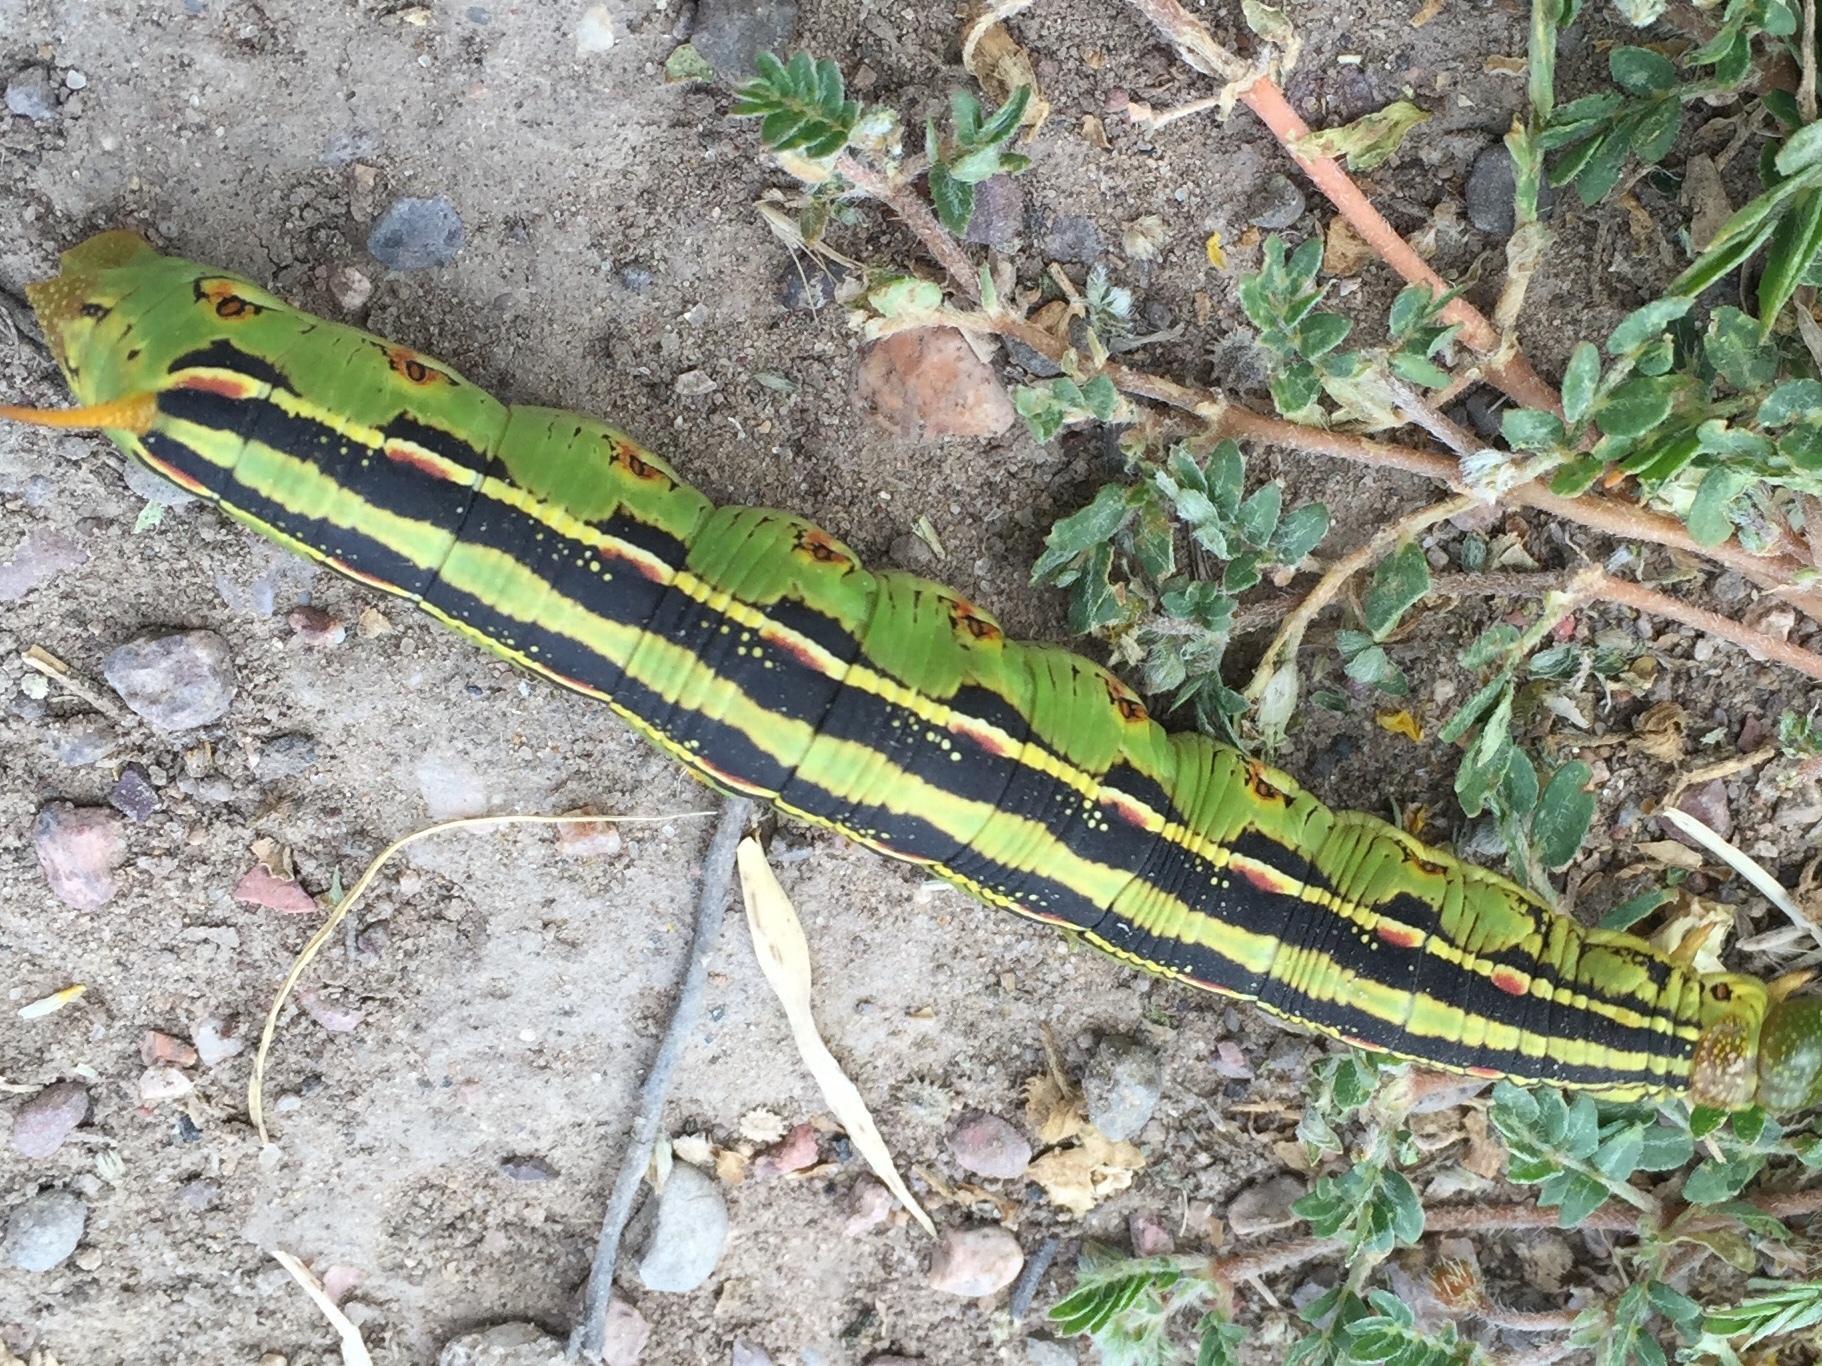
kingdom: Animalia
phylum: Arthropoda
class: Insecta
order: Lepidoptera
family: Sphingidae
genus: Hyles
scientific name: Hyles lineata
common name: White-lined sphinx
